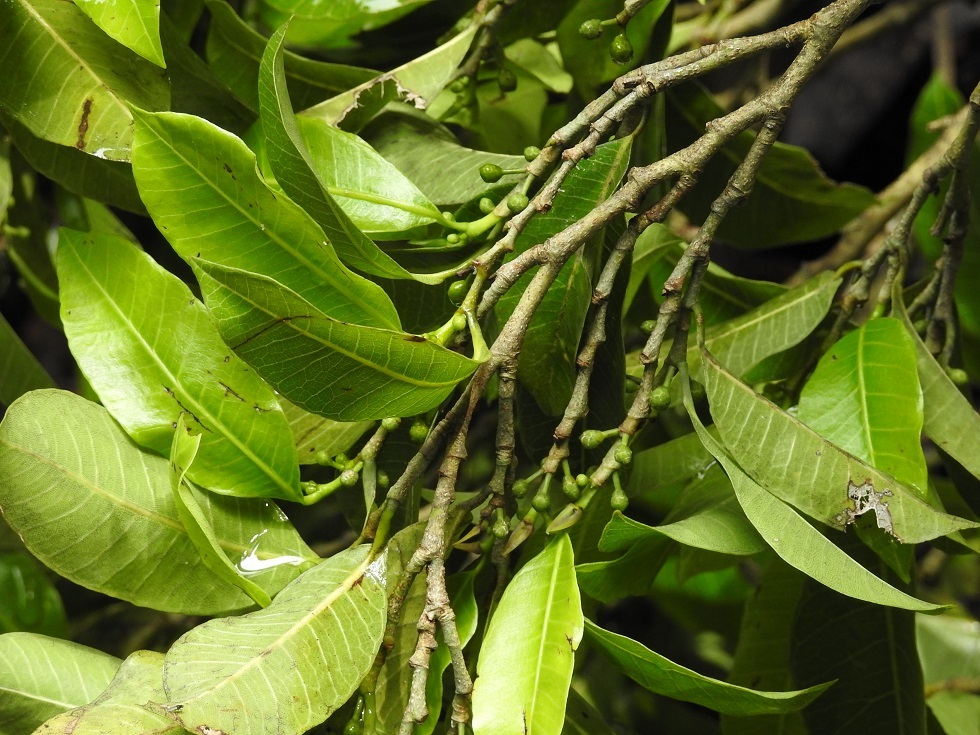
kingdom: Plantae
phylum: Tracheophyta
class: Magnoliopsida
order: Rosales
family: Moraceae
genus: Brosimum
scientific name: Brosimum alicastrum
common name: Breadnut
